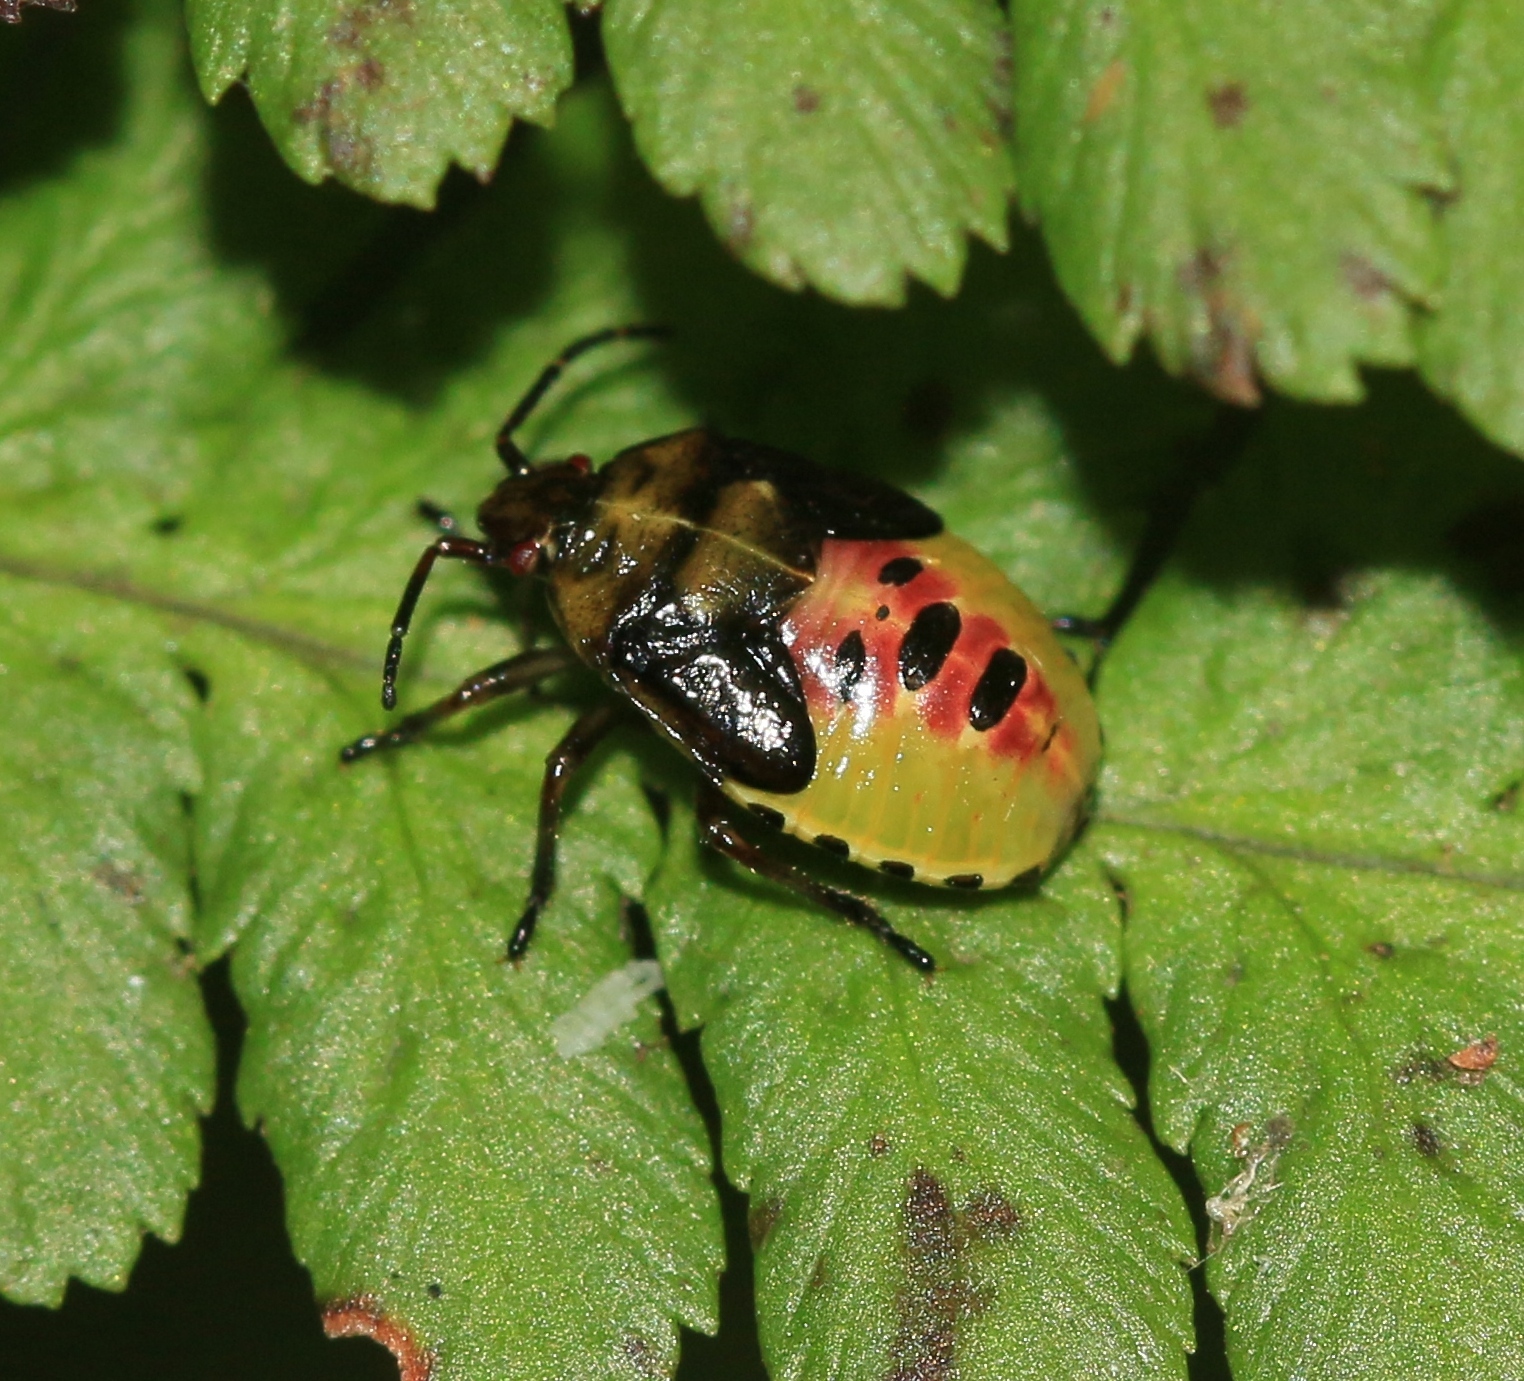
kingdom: Animalia
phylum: Arthropoda
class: Insecta
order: Hemiptera
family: Acanthosomatidae
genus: Elasmostethus
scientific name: Elasmostethus interstinctus
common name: Birch shieldbug
